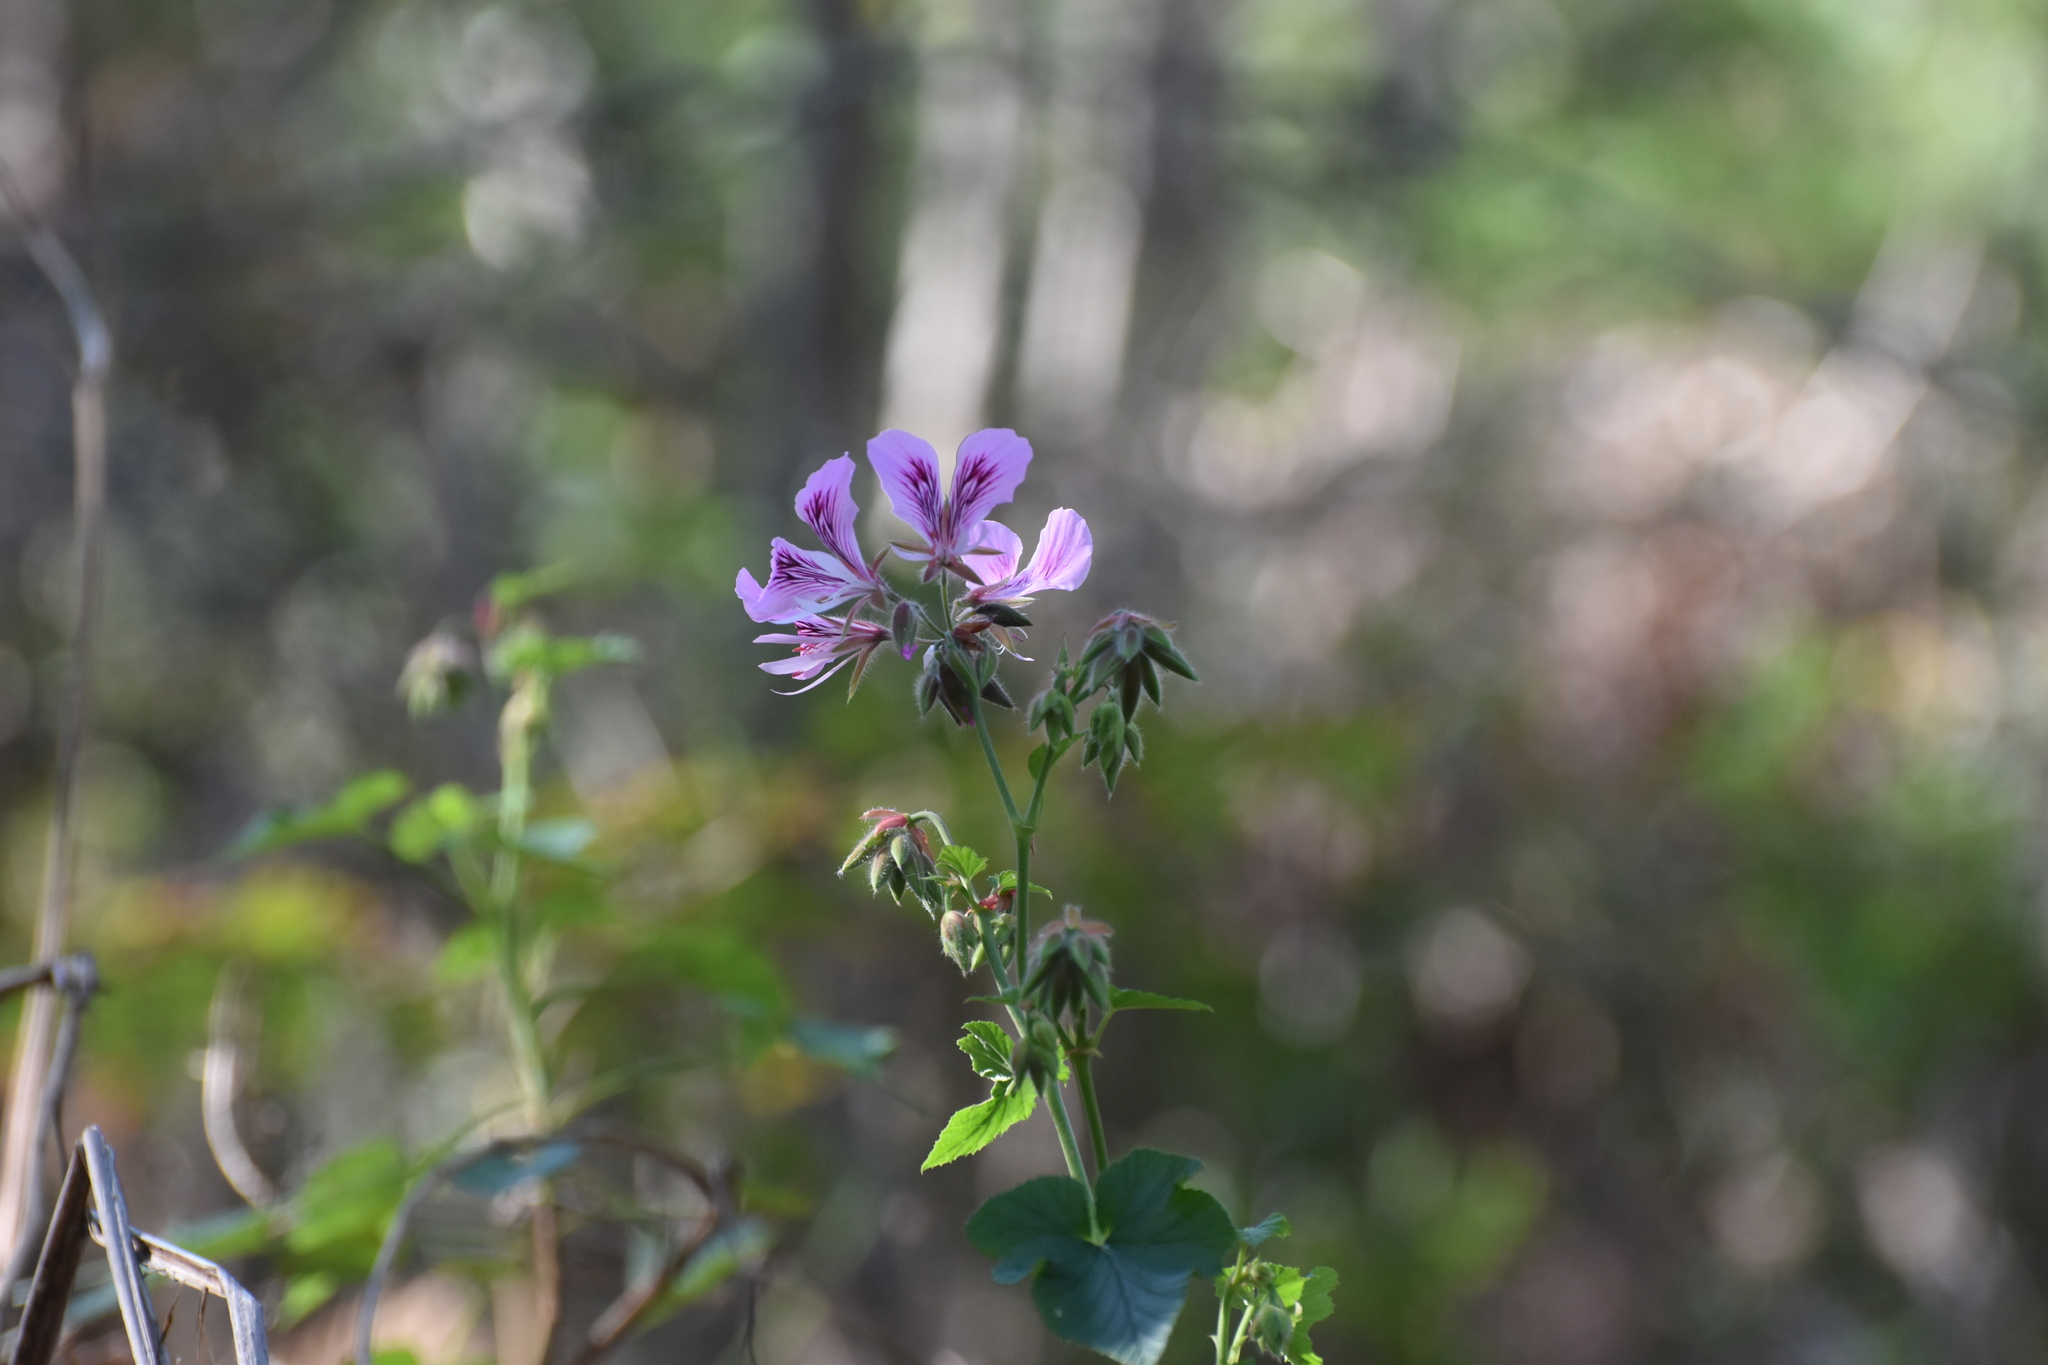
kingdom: Plantae
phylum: Tracheophyta
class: Magnoliopsida
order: Geraniales
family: Geraniaceae
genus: Pelargonium
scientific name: Pelargonium cordifolium
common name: Heart-leaf pelargonium
